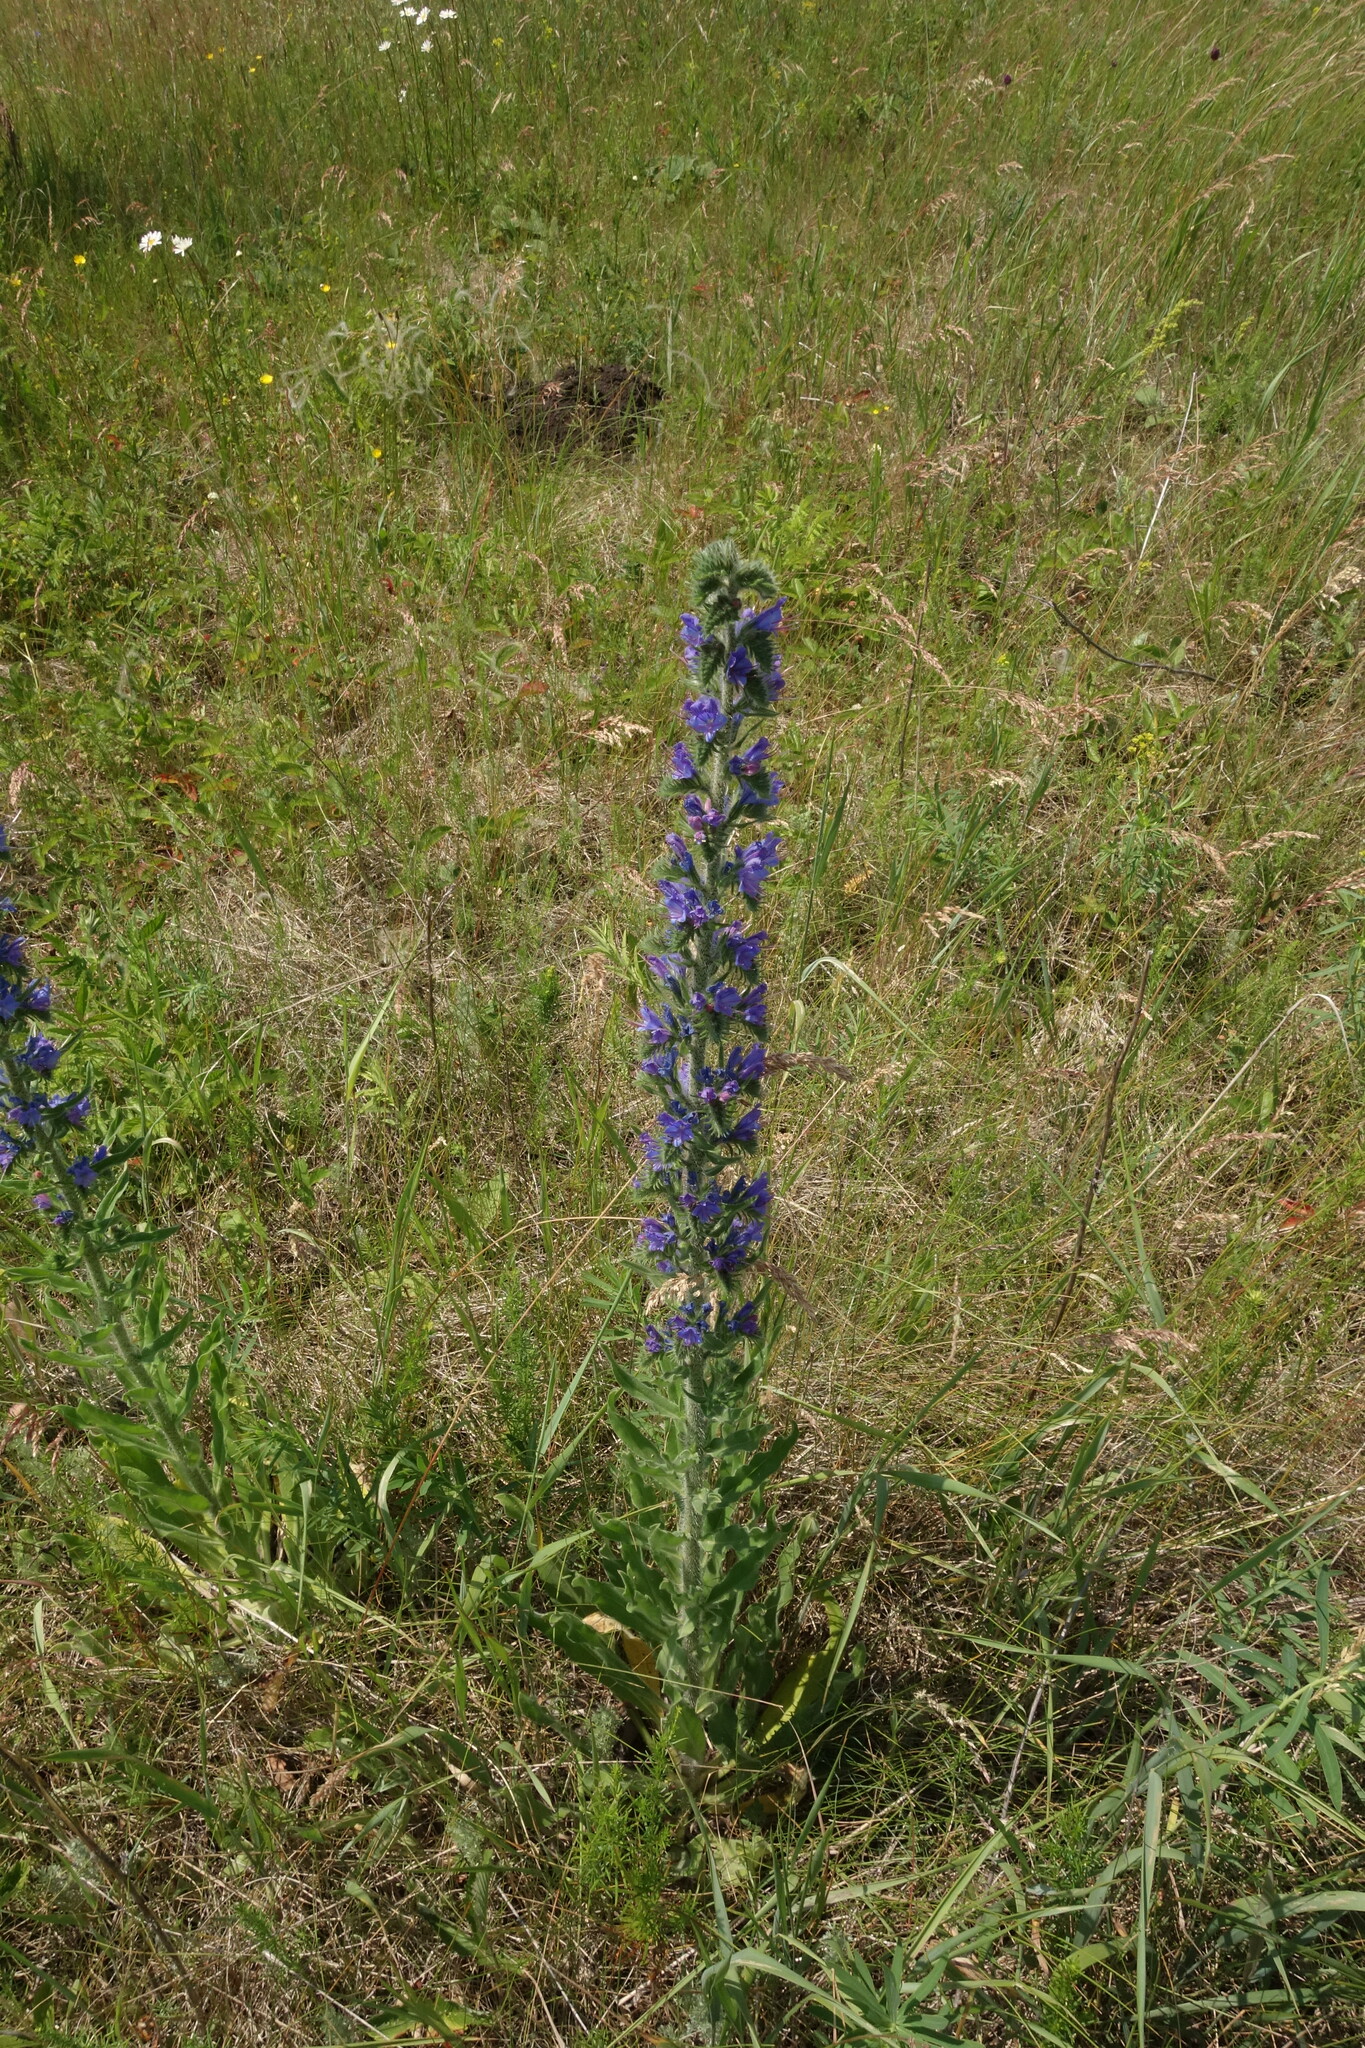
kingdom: Plantae
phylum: Tracheophyta
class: Magnoliopsida
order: Boraginales
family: Boraginaceae
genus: Echium
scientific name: Echium vulgare
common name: Common viper's bugloss
